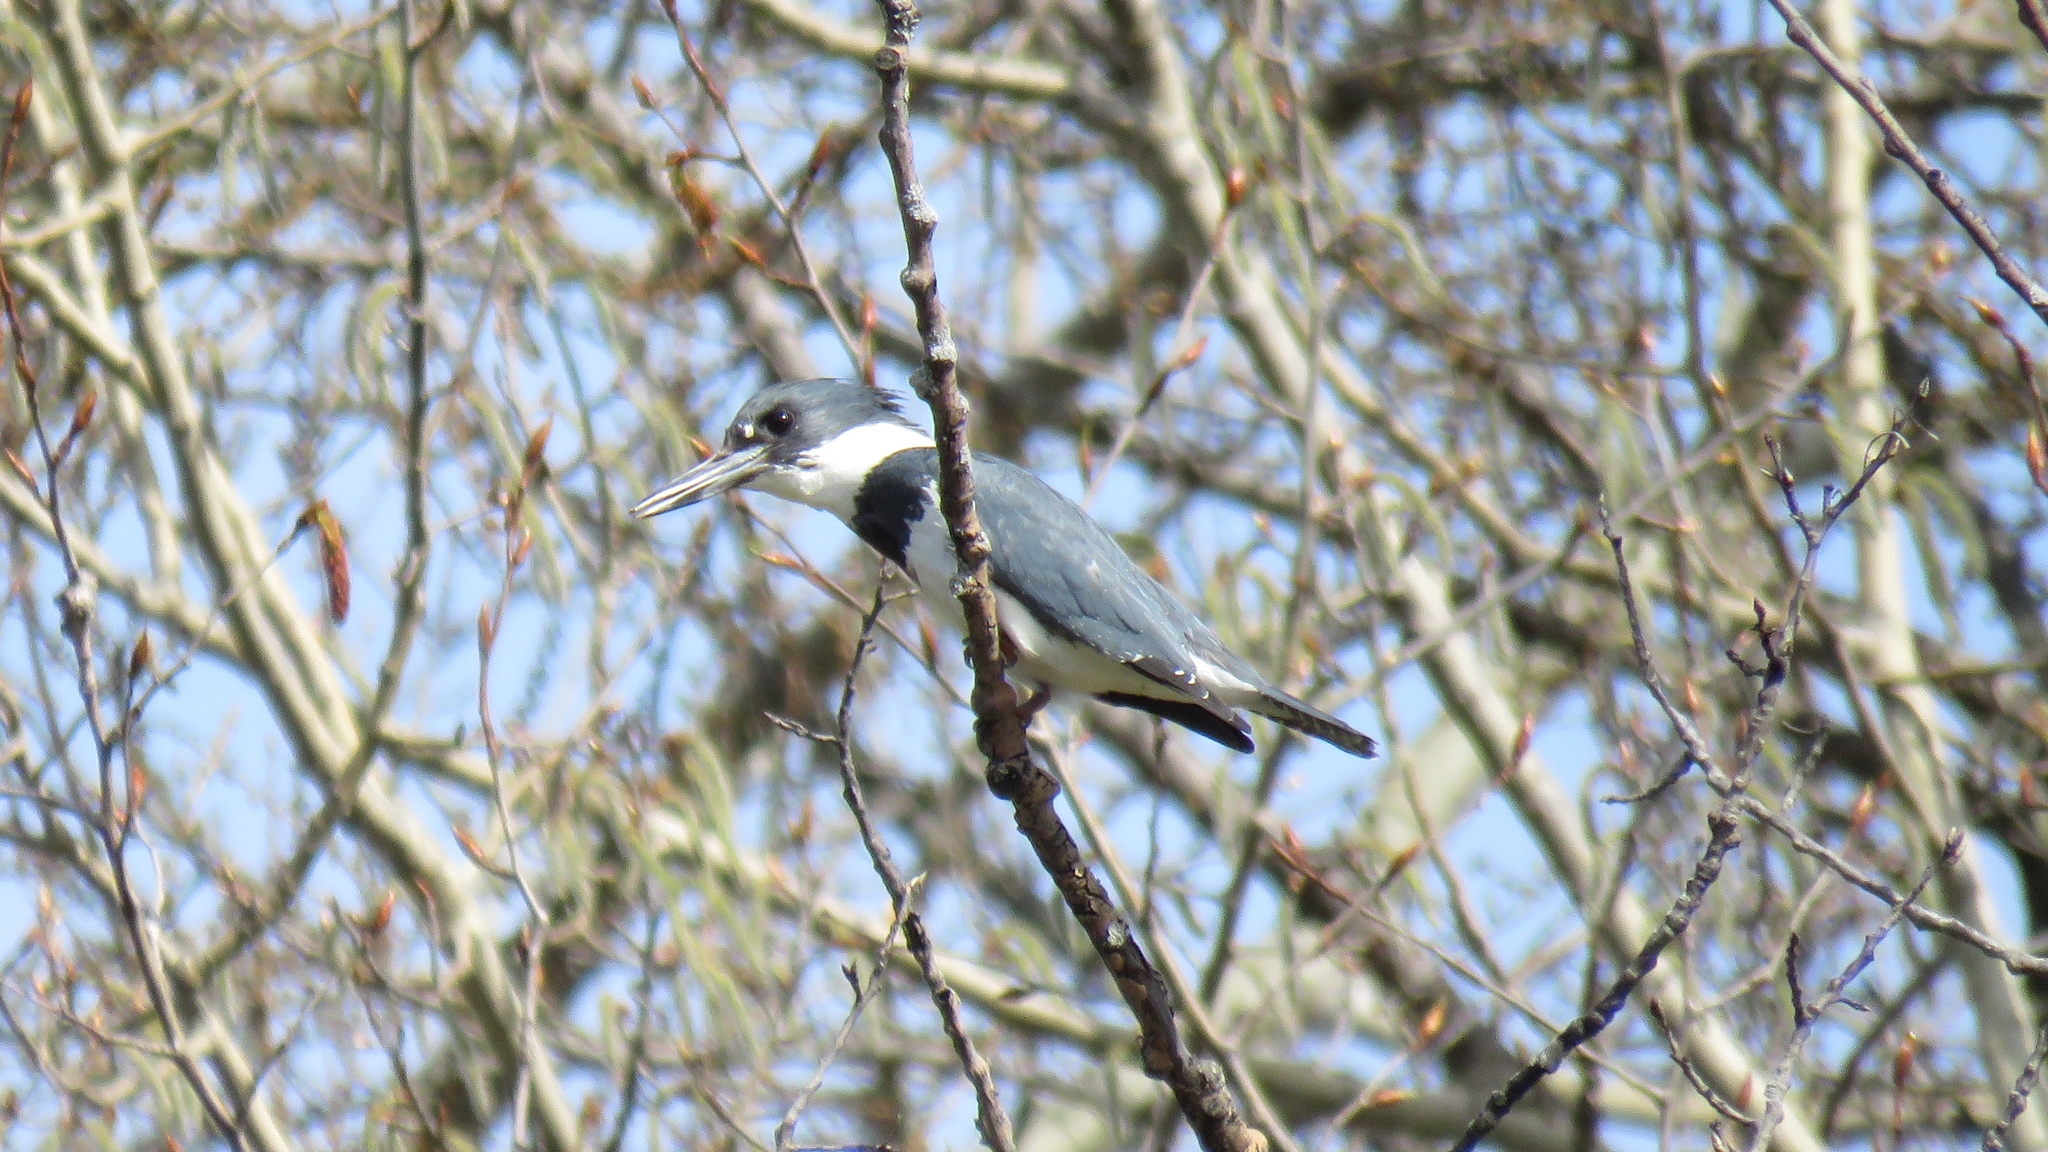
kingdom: Animalia
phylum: Chordata
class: Aves
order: Coraciiformes
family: Alcedinidae
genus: Megaceryle
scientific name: Megaceryle alcyon
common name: Belted kingfisher
